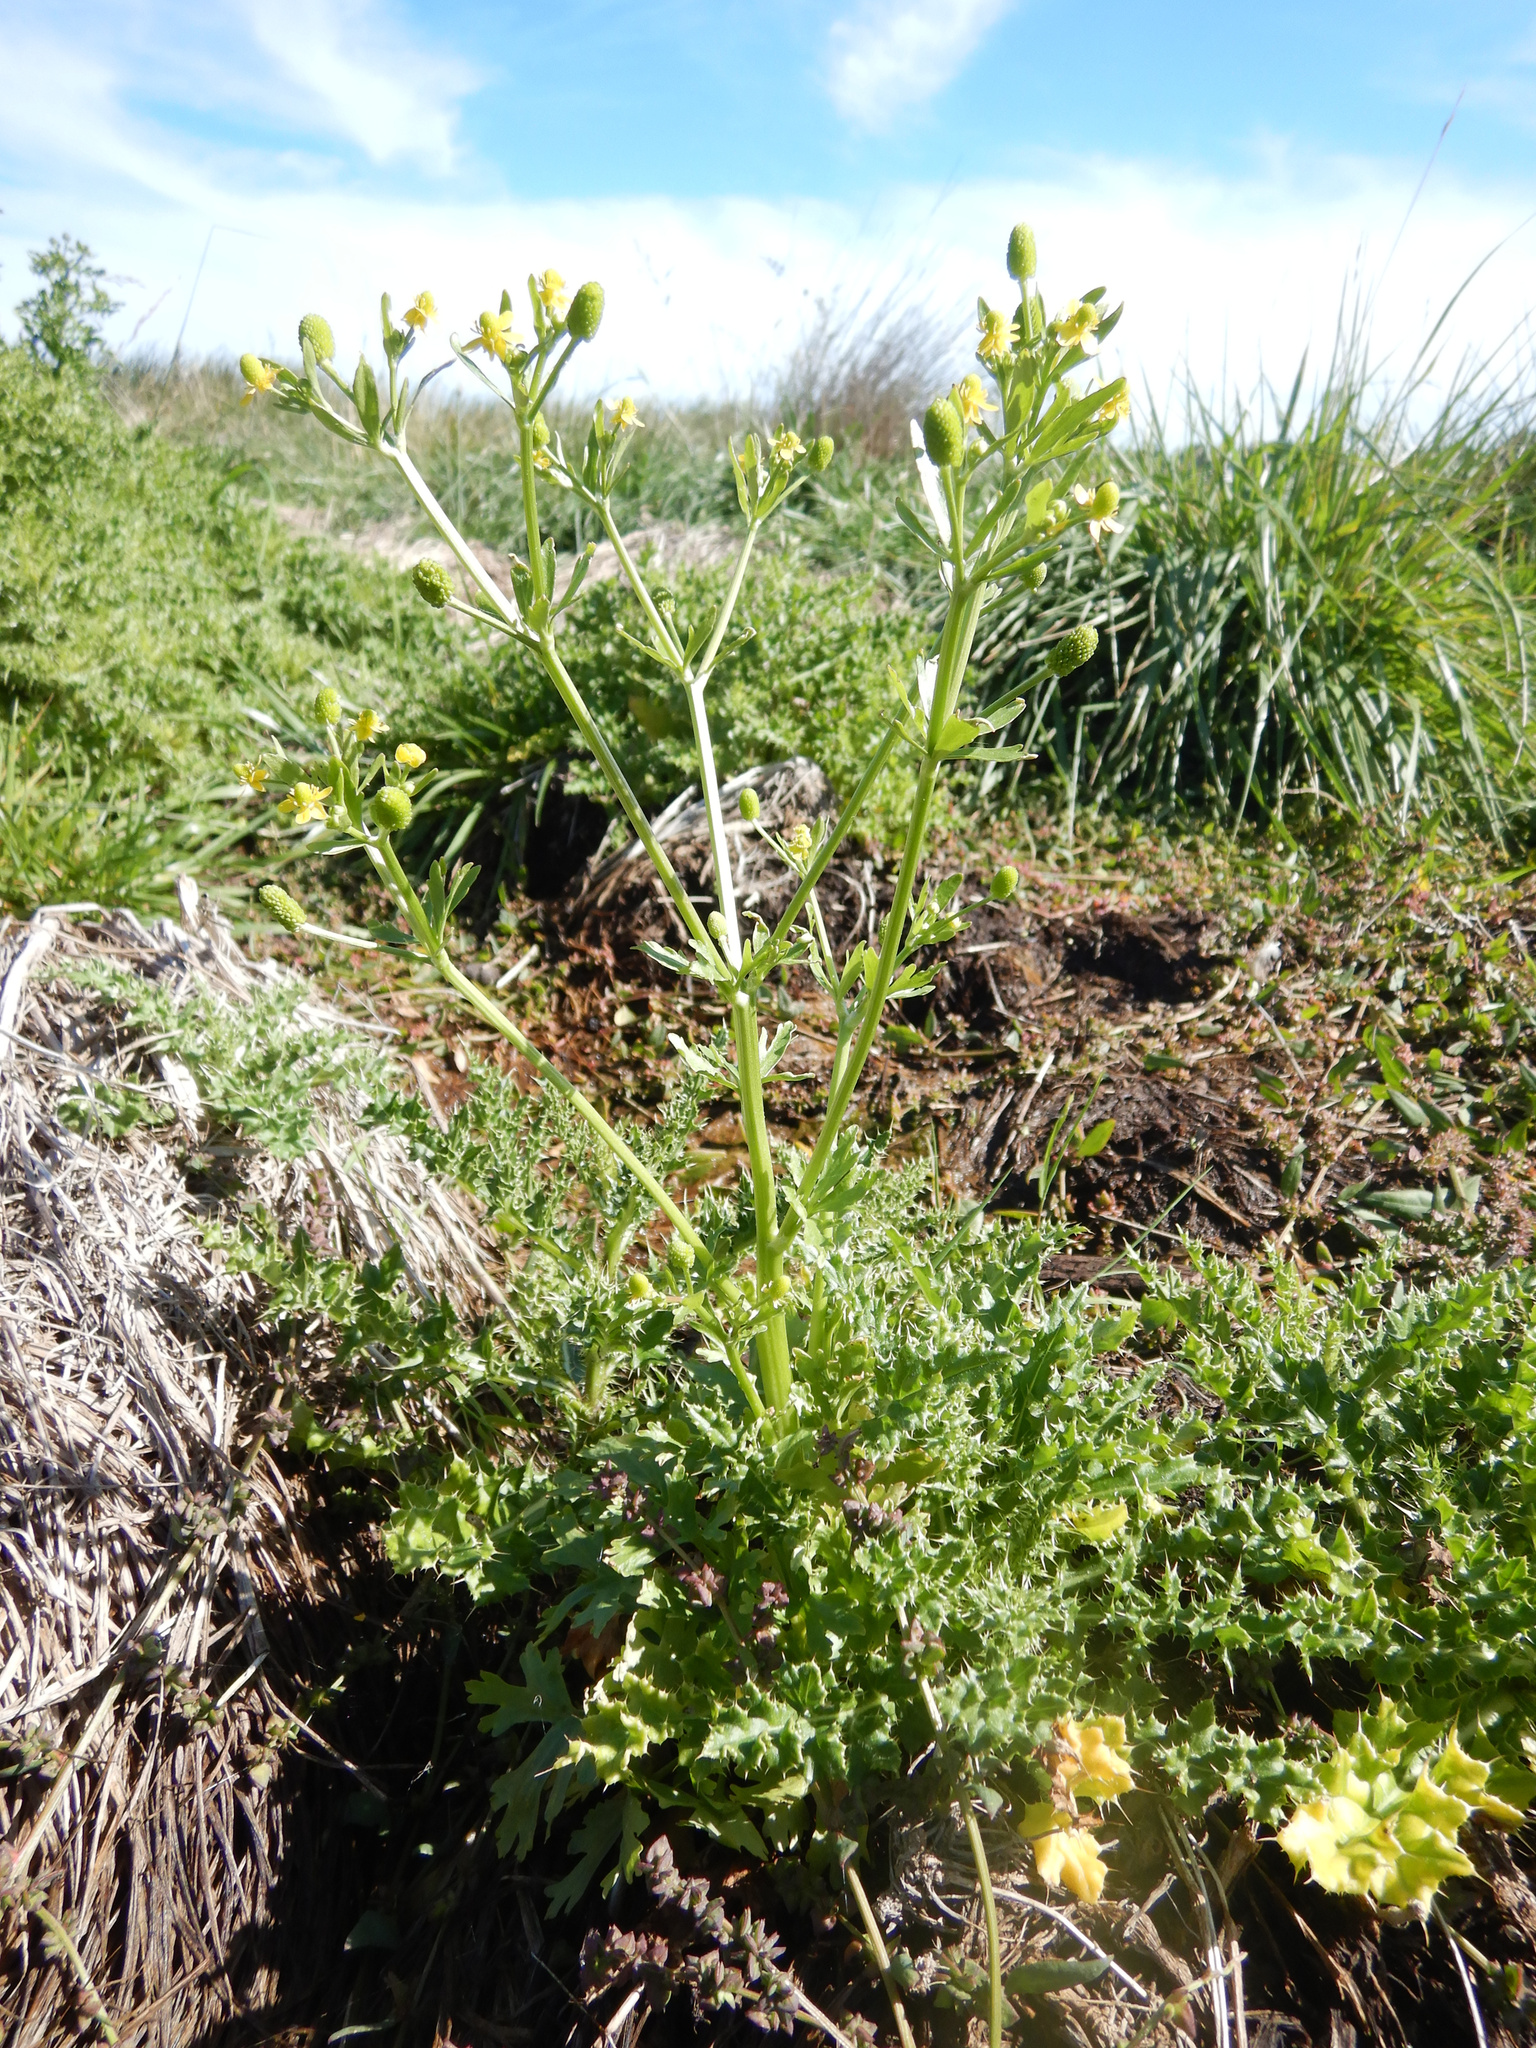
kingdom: Plantae
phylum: Tracheophyta
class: Magnoliopsida
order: Ranunculales
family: Ranunculaceae
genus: Ranunculus
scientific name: Ranunculus sceleratus
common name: Celery-leaved buttercup
